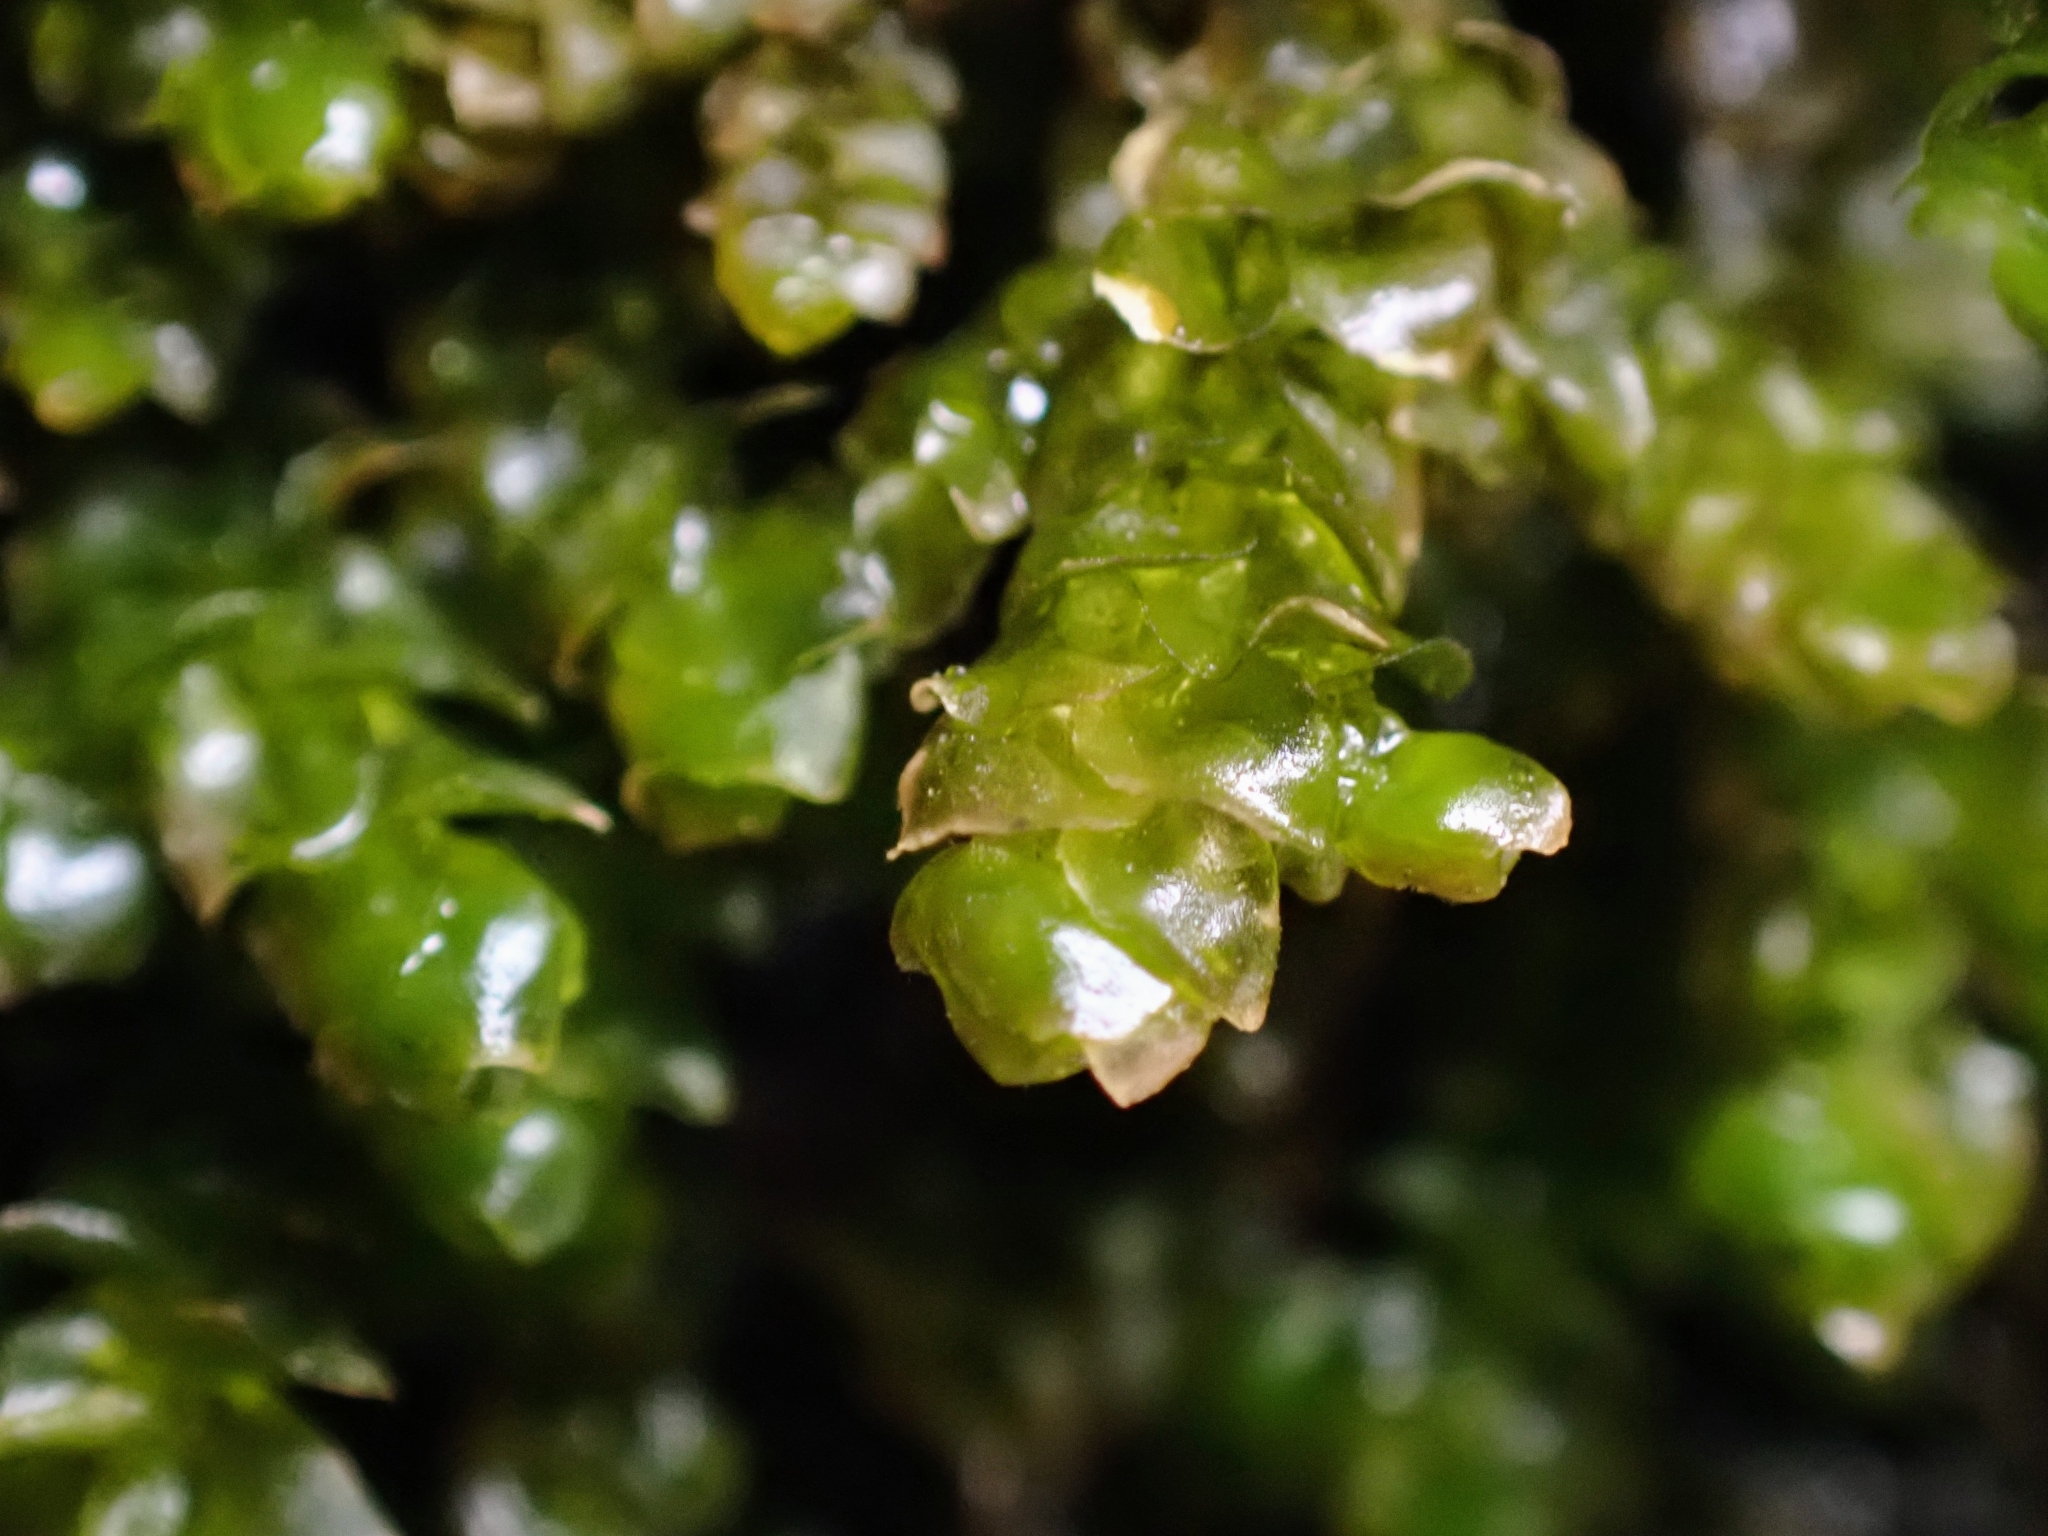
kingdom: Plantae
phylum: Marchantiophyta
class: Jungermanniopsida
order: Porellales
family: Porellaceae
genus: Porella
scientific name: Porella platyphylla
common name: Wall scalewort
